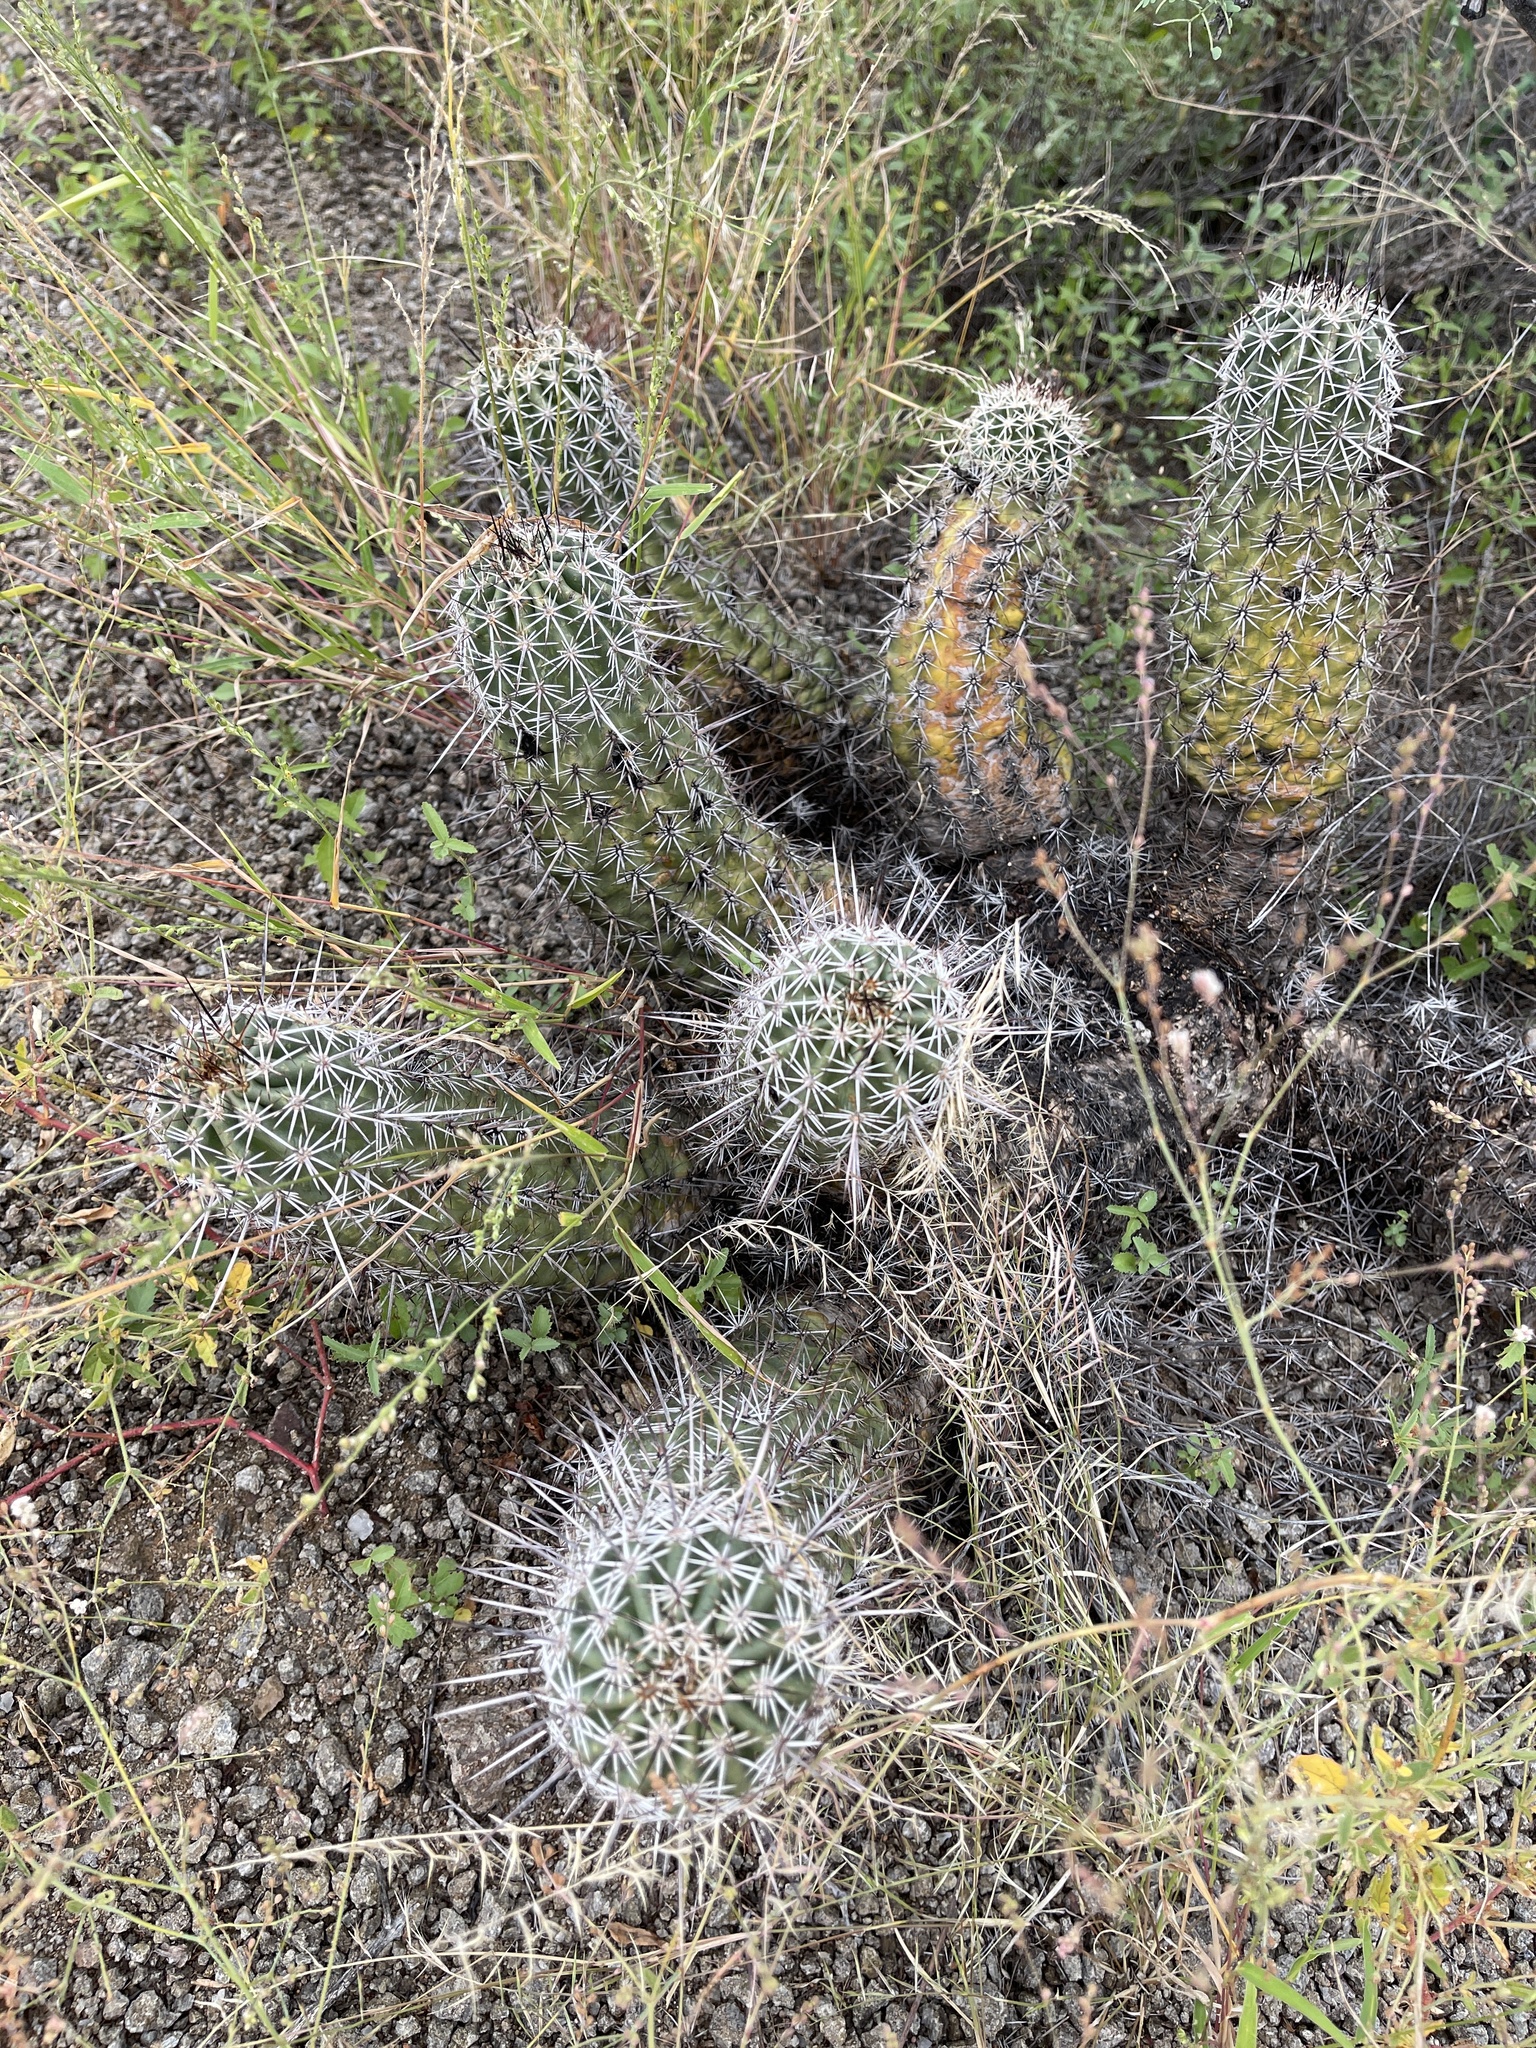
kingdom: Plantae
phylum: Tracheophyta
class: Magnoliopsida
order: Caryophyllales
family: Cactaceae
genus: Echinocereus
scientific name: Echinocereus fasciculatus
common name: Bundle hedgehog
